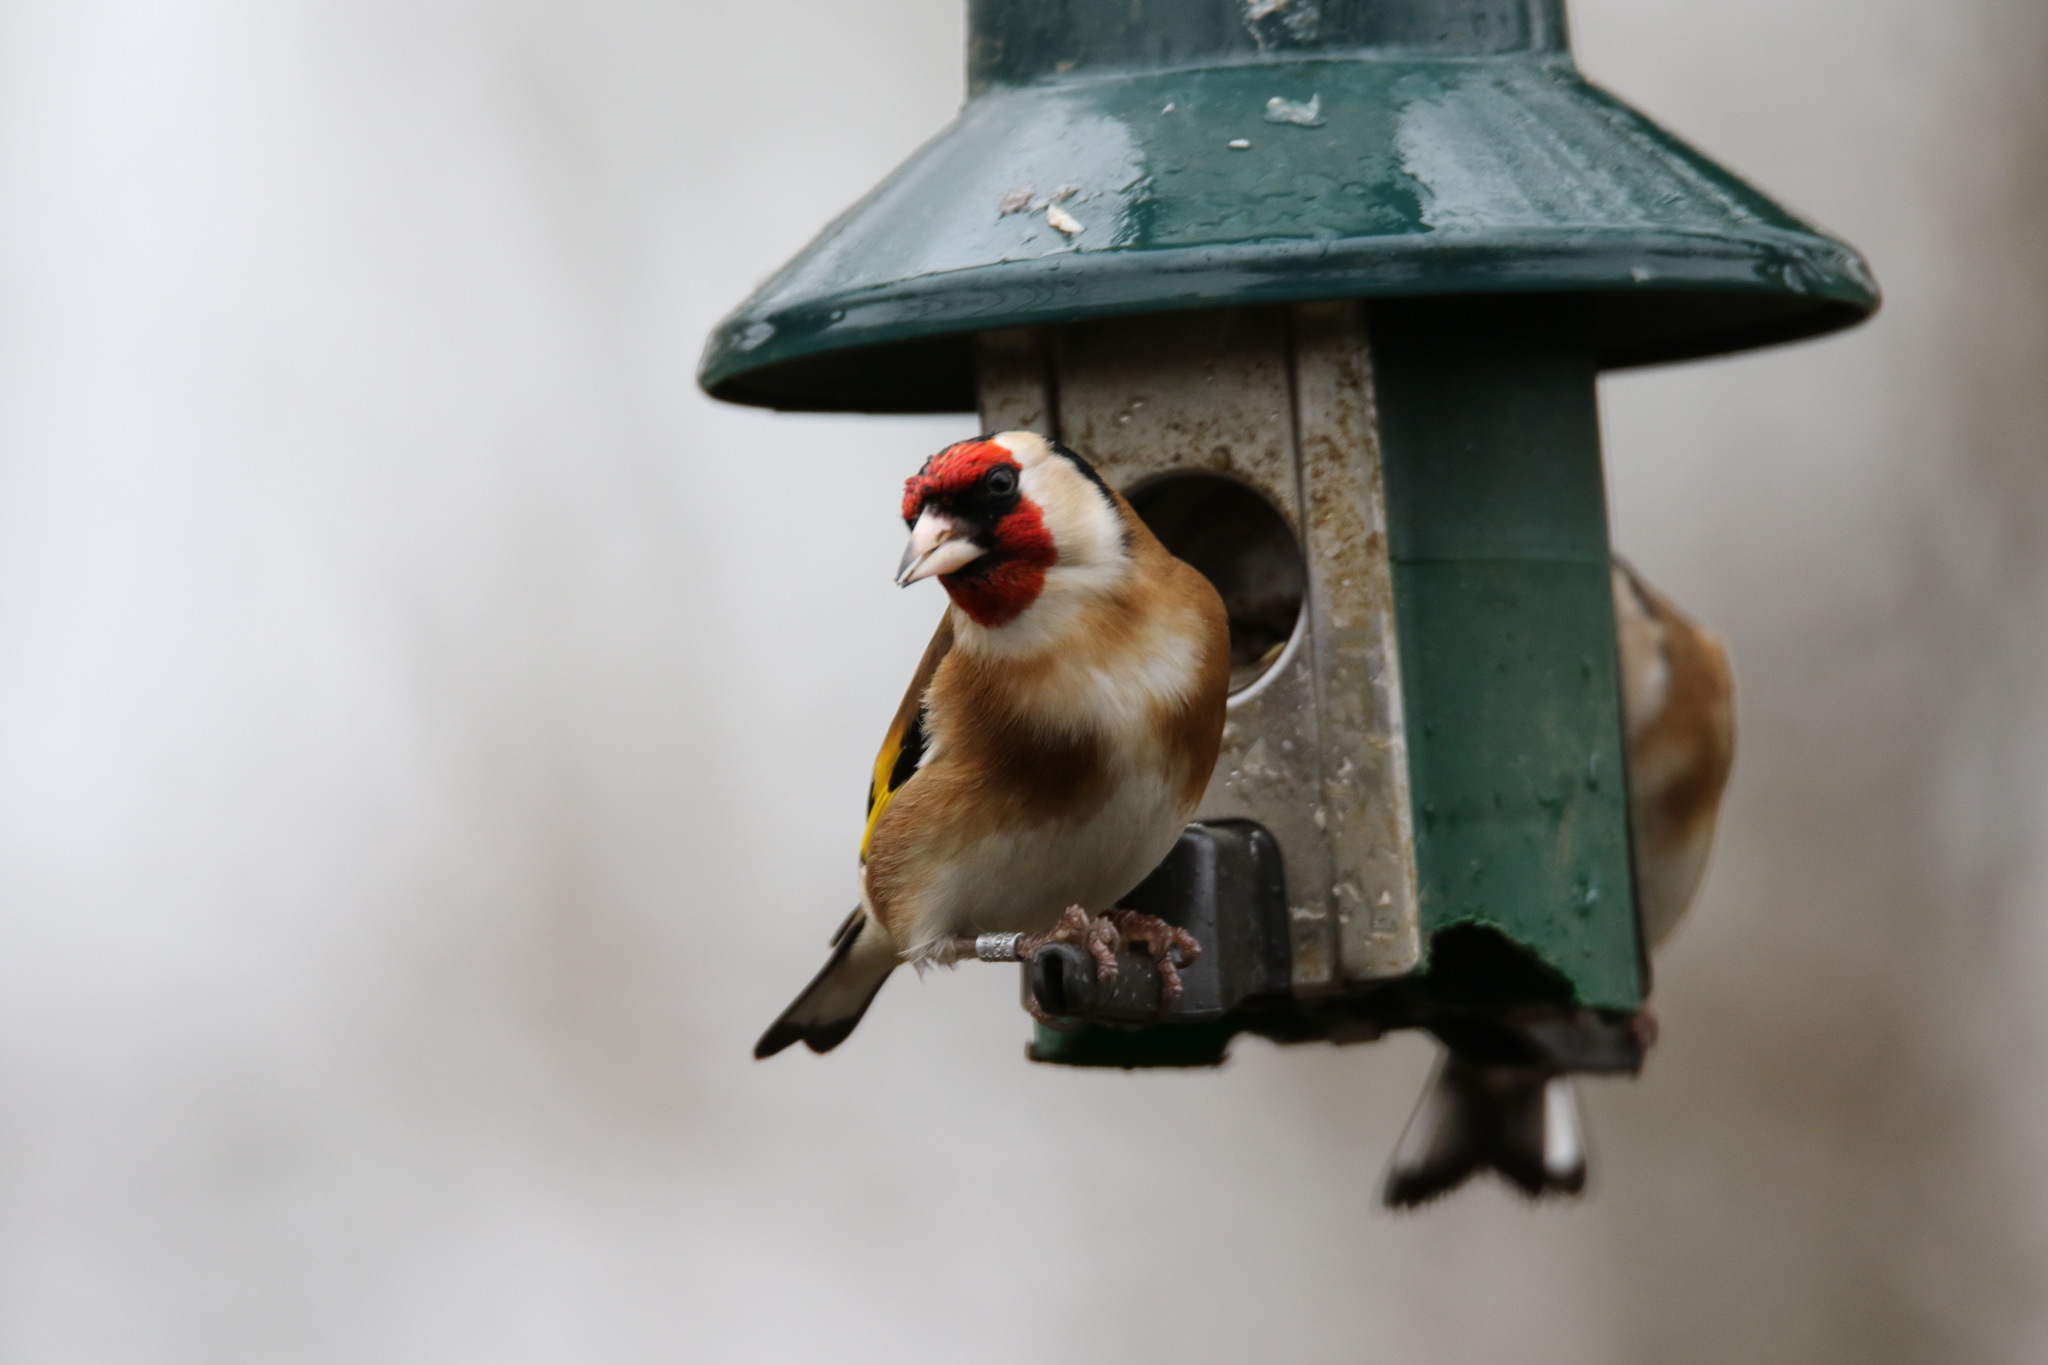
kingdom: Animalia
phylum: Chordata
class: Aves
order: Passeriformes
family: Fringillidae
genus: Carduelis
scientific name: Carduelis carduelis
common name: European goldfinch
